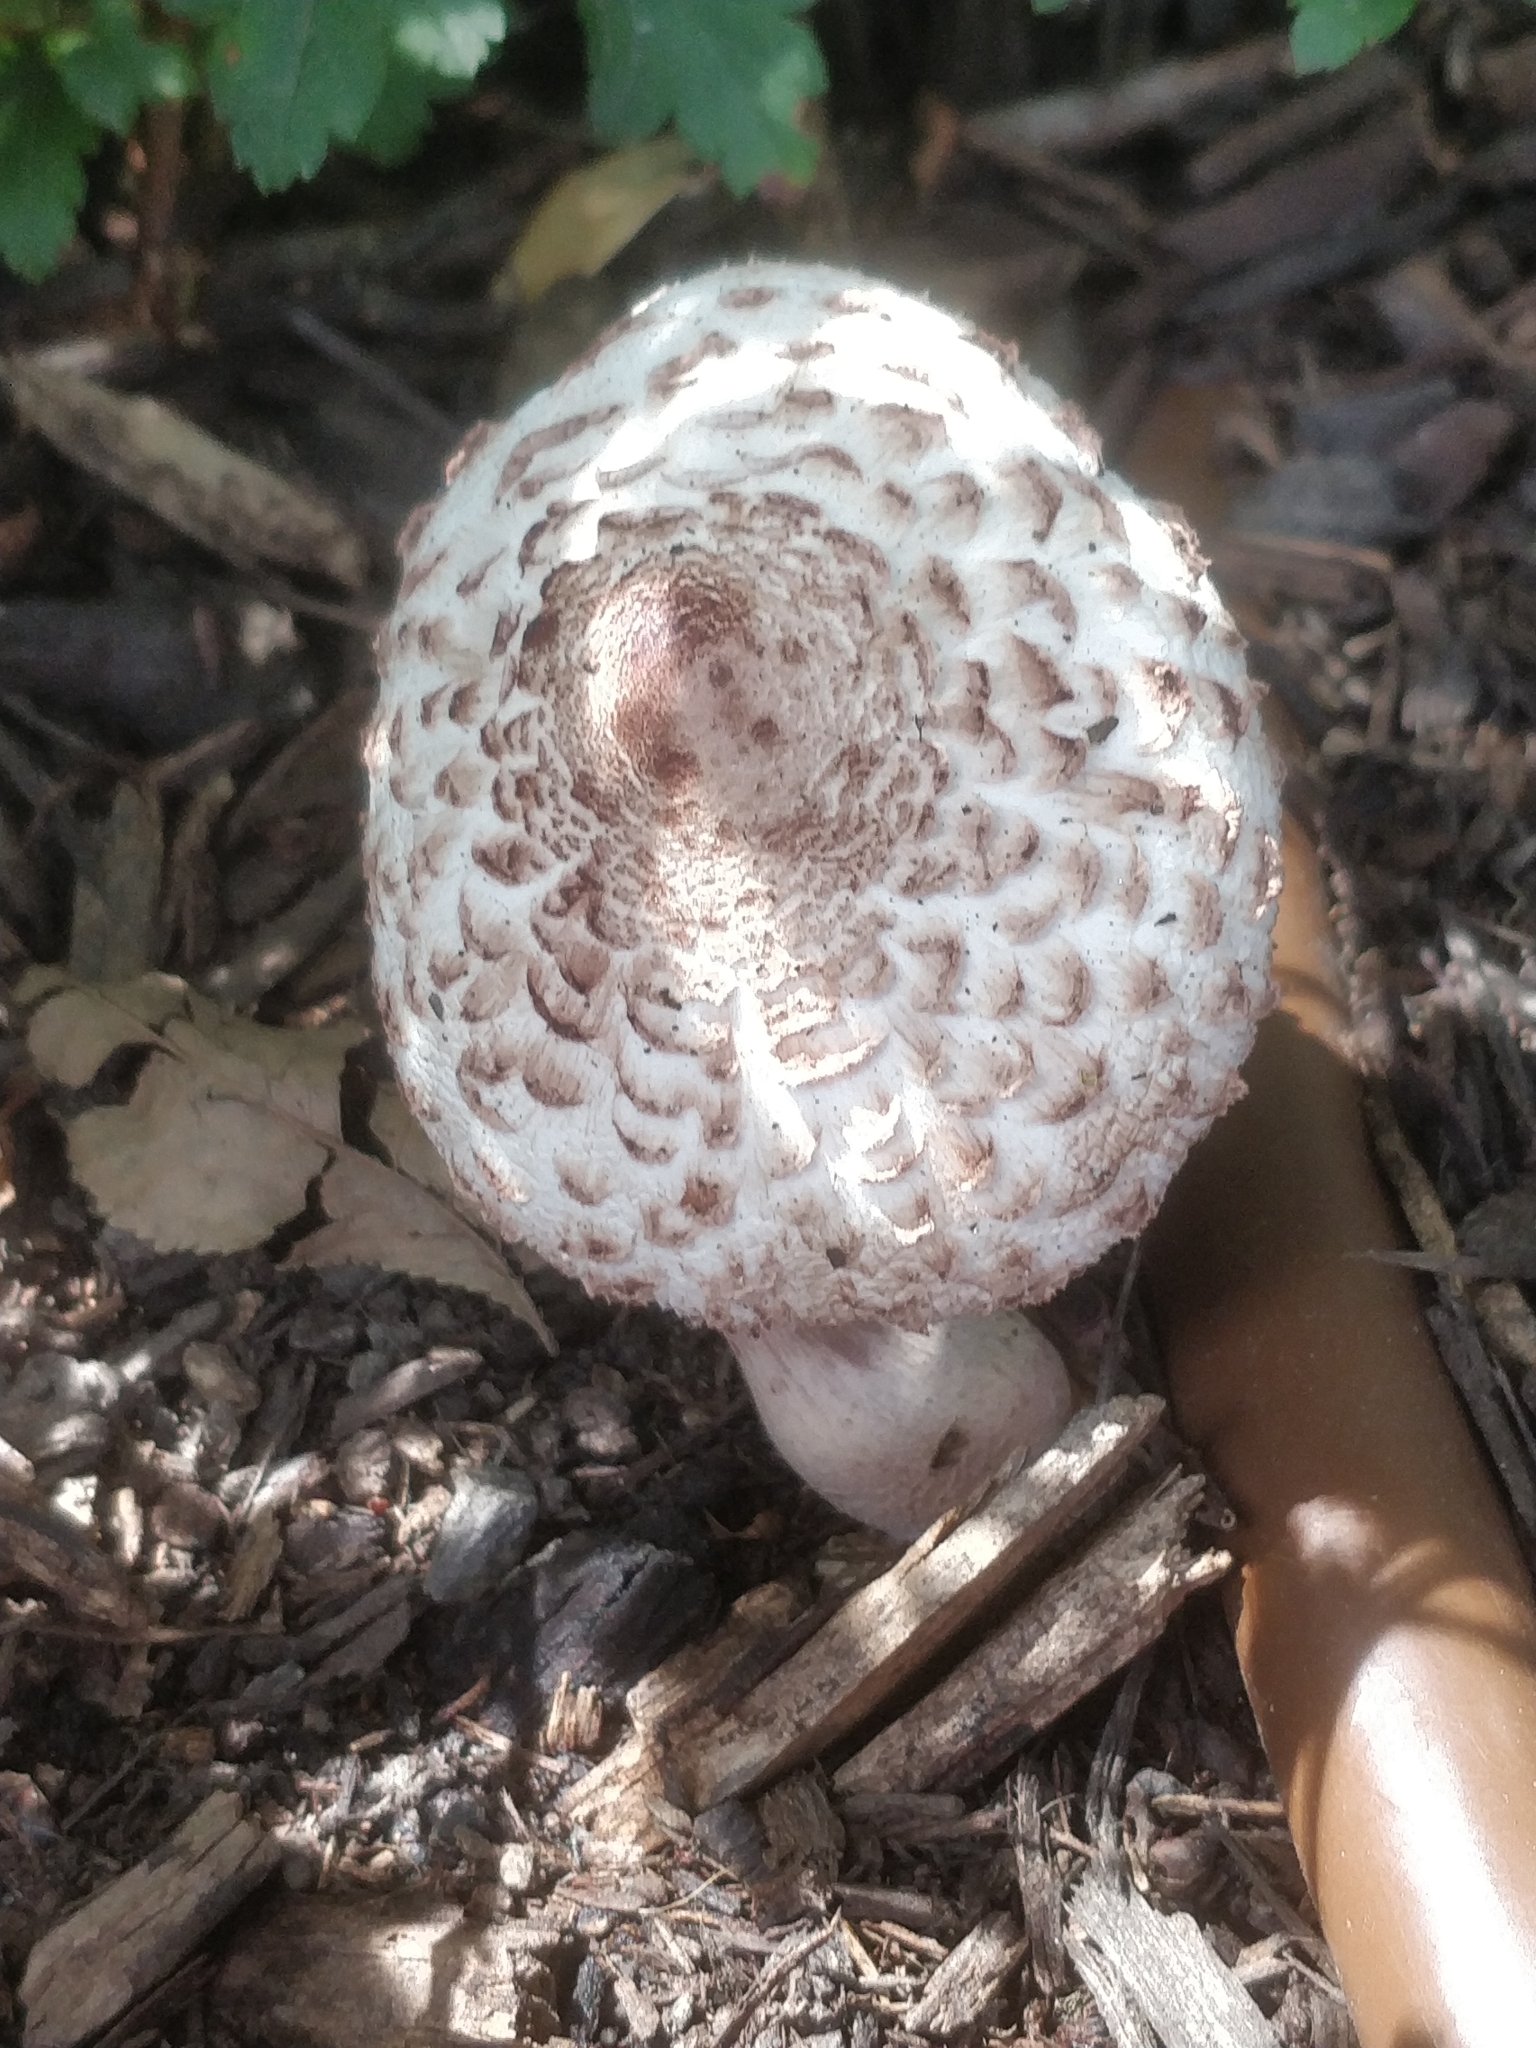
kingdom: Fungi
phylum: Basidiomycota
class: Agaricomycetes
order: Agaricales
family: Agaricaceae
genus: Leucoagaricus
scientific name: Leucoagaricus americanus
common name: Reddening lepiota
